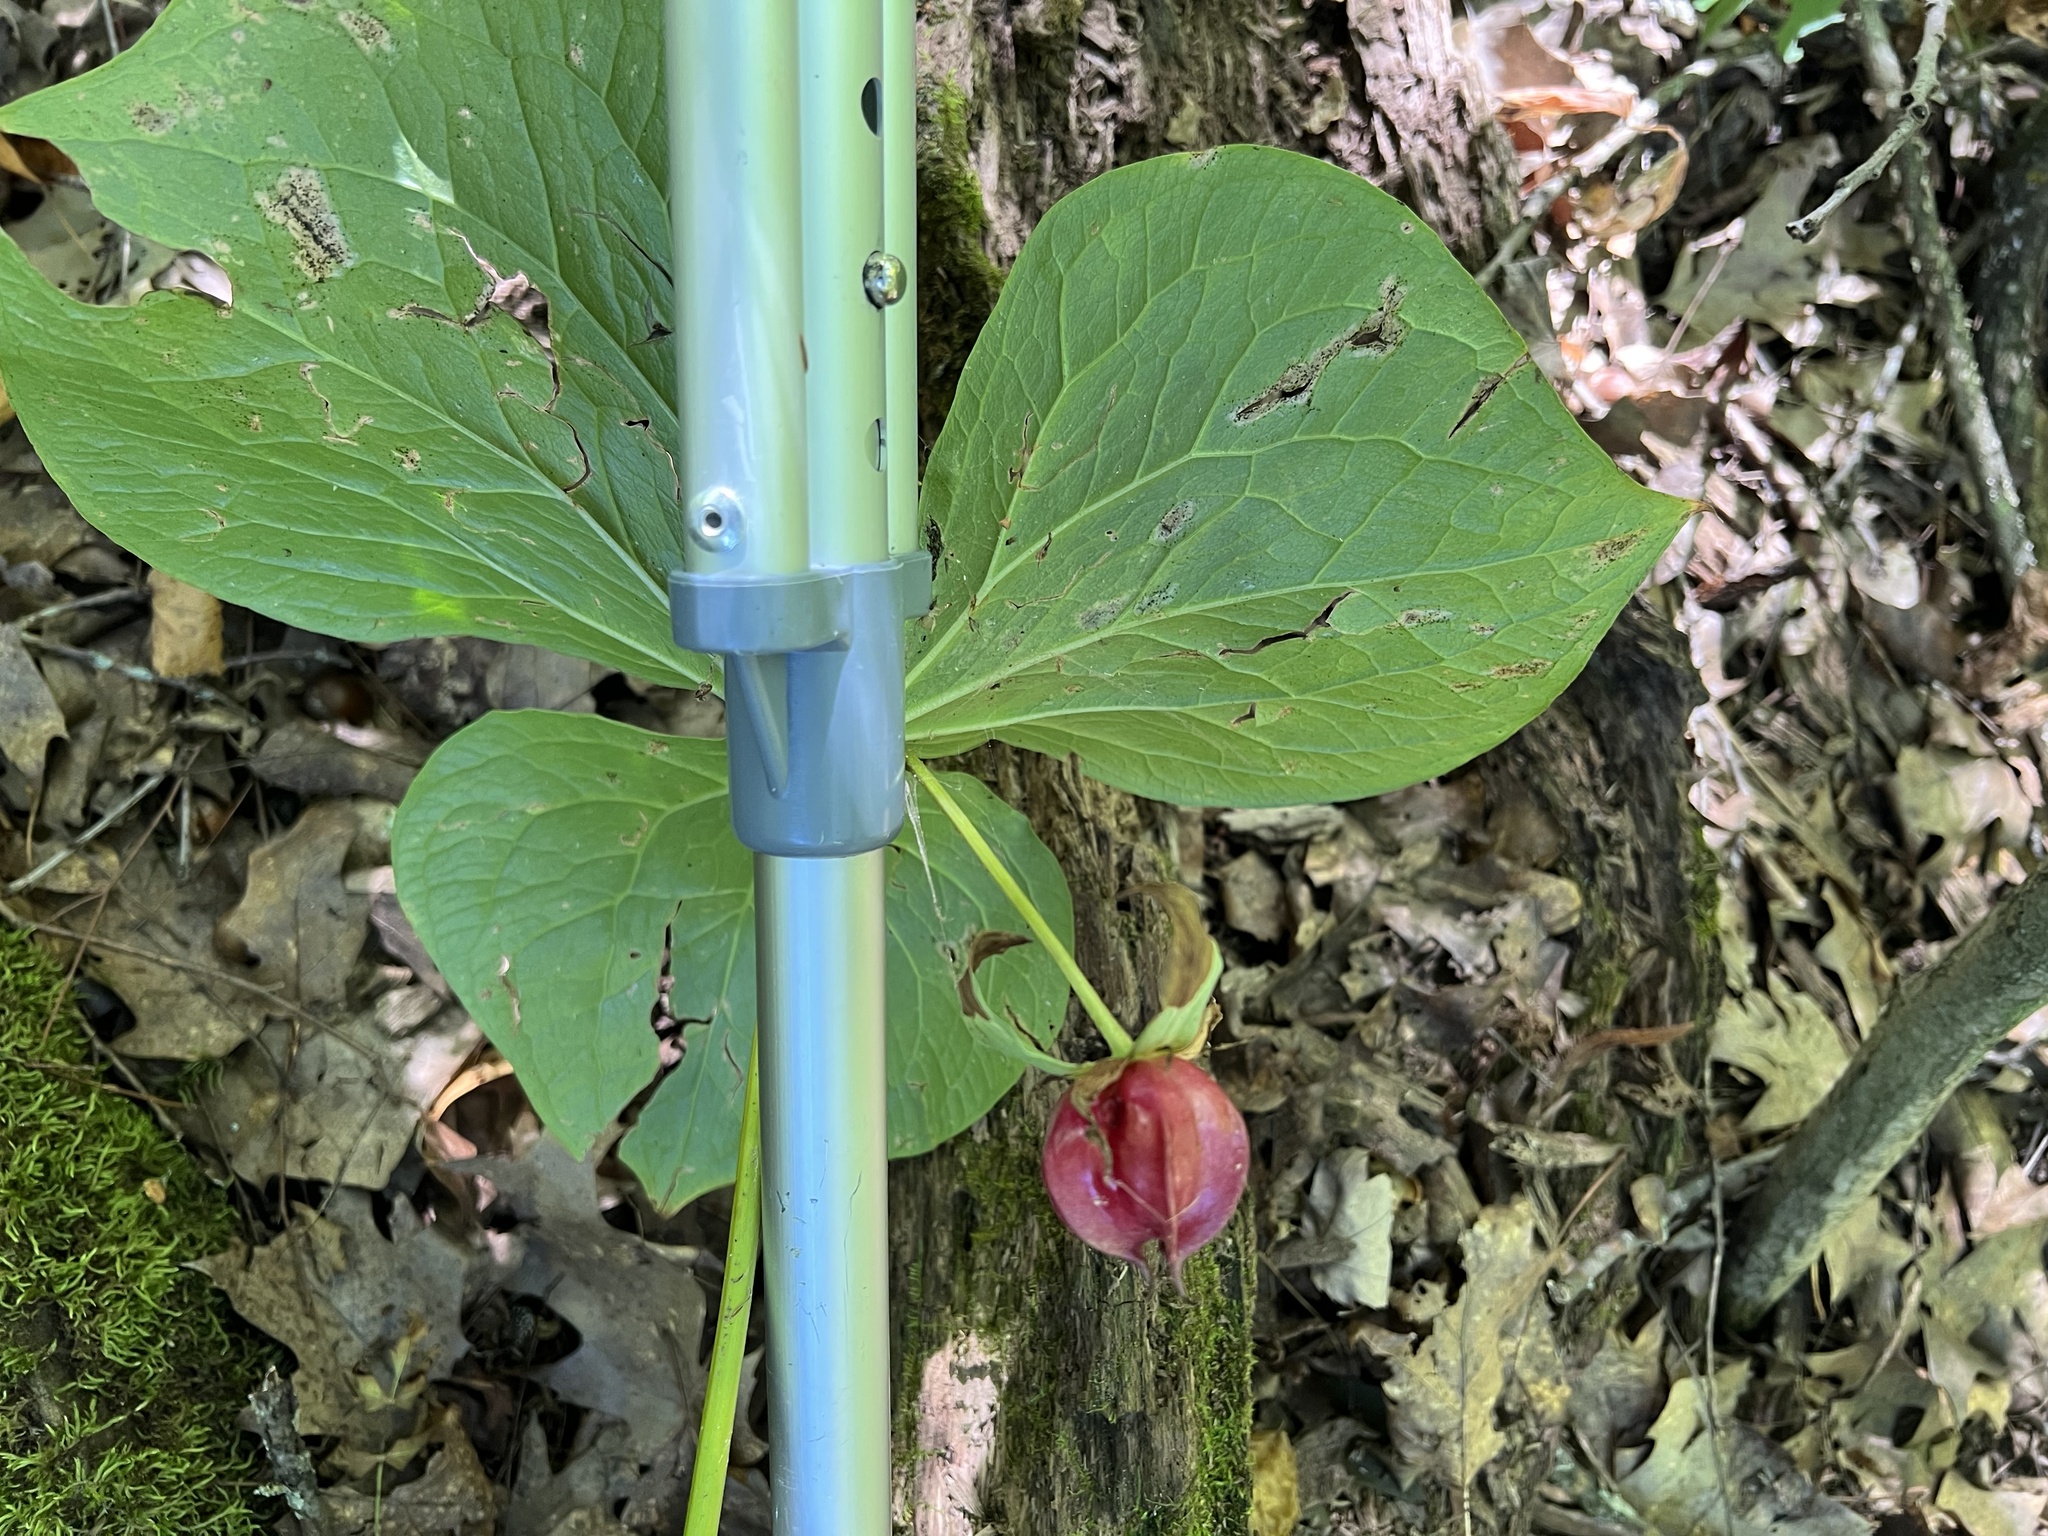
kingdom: Plantae
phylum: Tracheophyta
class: Liliopsida
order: Liliales
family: Melanthiaceae
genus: Trillium
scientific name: Trillium cernuum
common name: Nodding trillium
